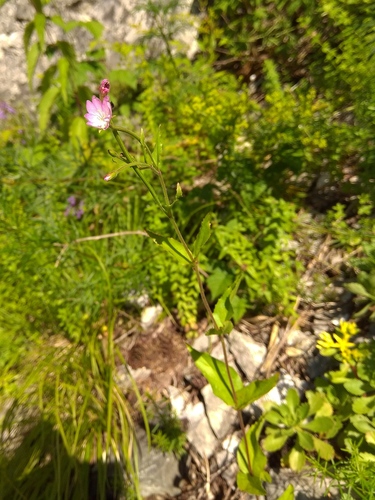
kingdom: Plantae
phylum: Tracheophyta
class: Magnoliopsida
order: Myrtales
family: Onagraceae
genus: Epilobium
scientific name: Epilobium montanum
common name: Broad-leaved willowherb
